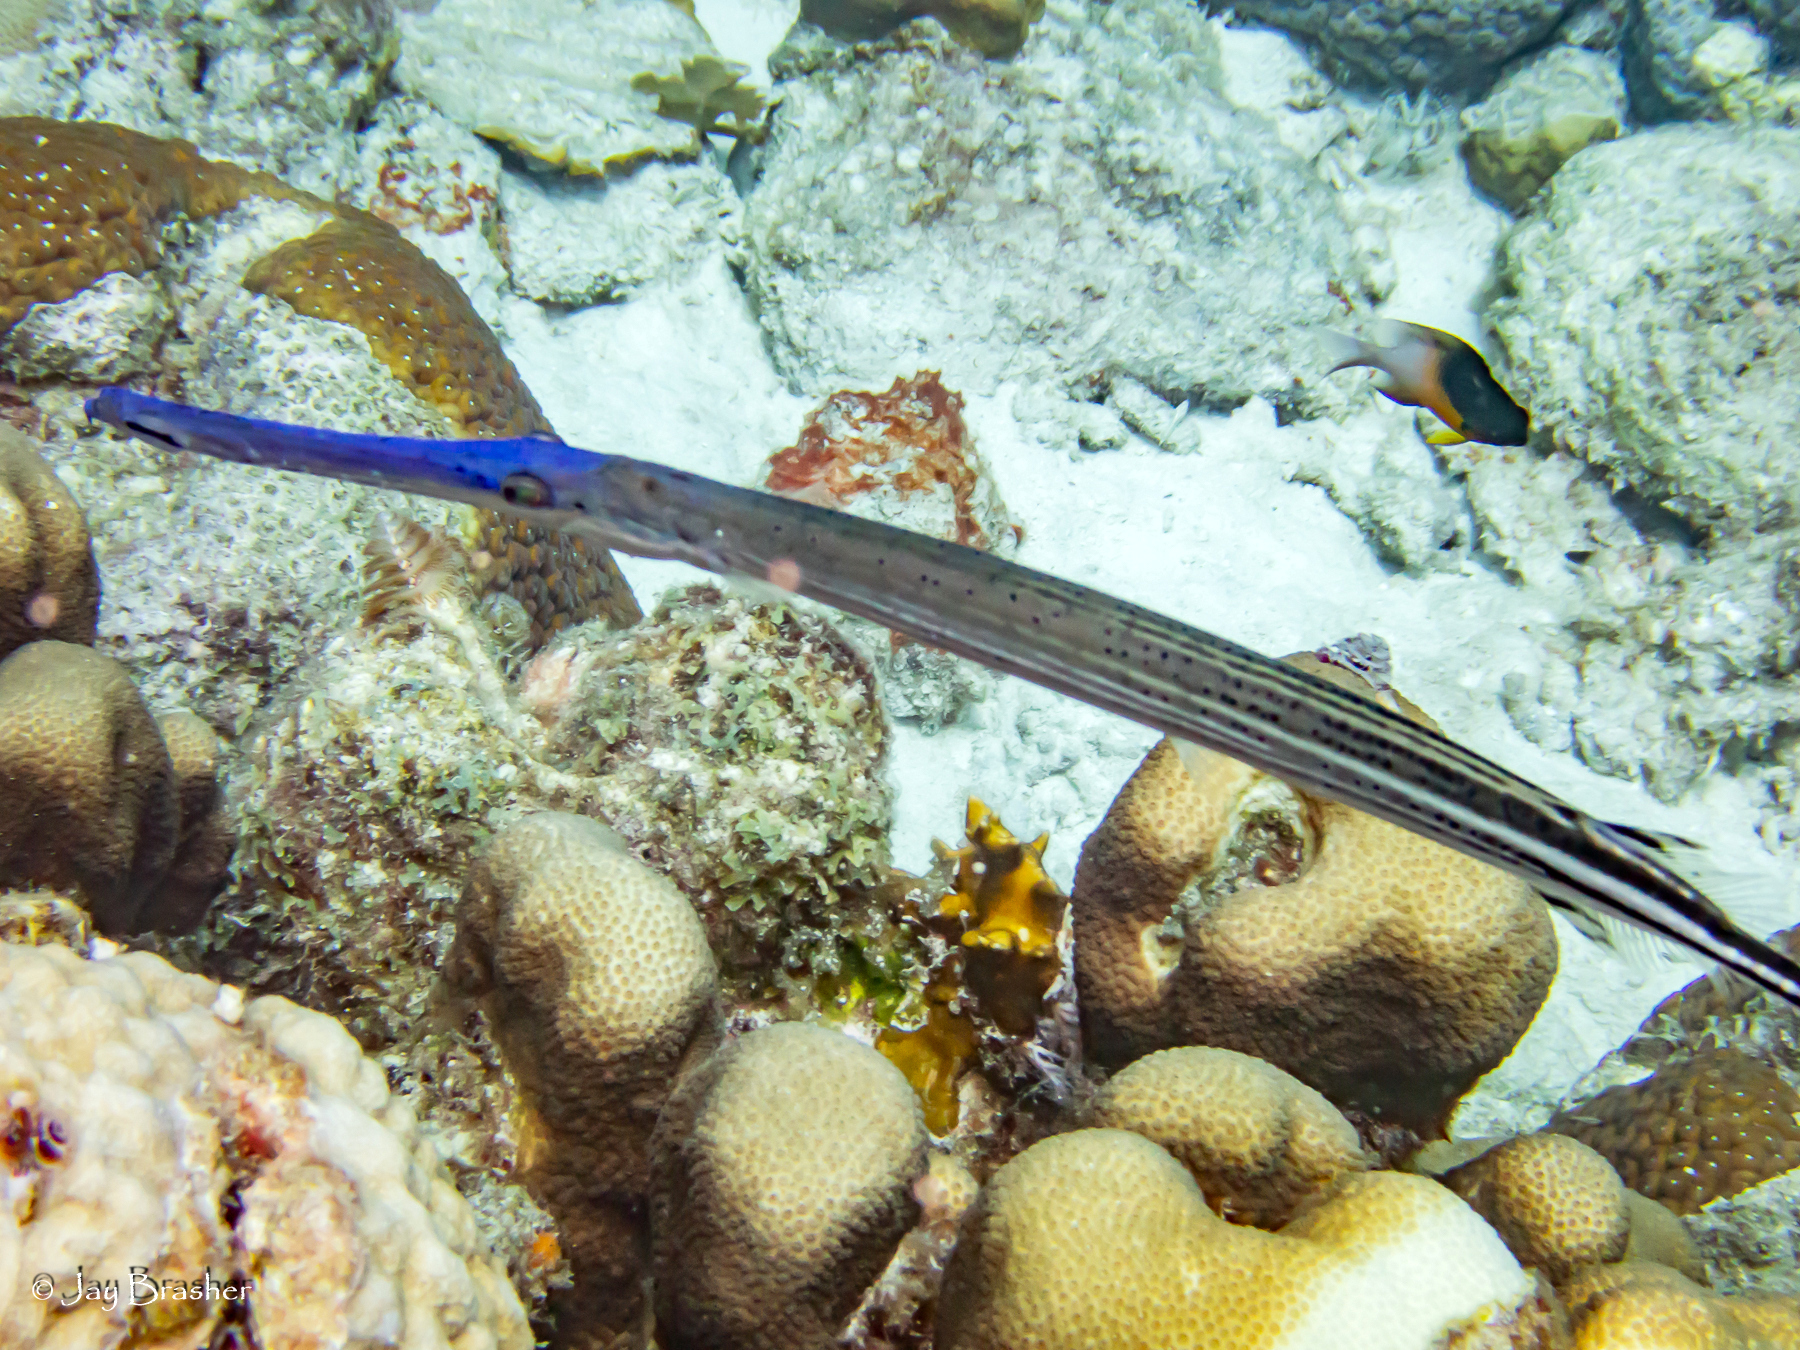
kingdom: Animalia
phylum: Chordata
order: Syngnathiformes
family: Aulostomidae
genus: Aulostomus
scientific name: Aulostomus maculatus
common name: West atlantic trumpetfish
